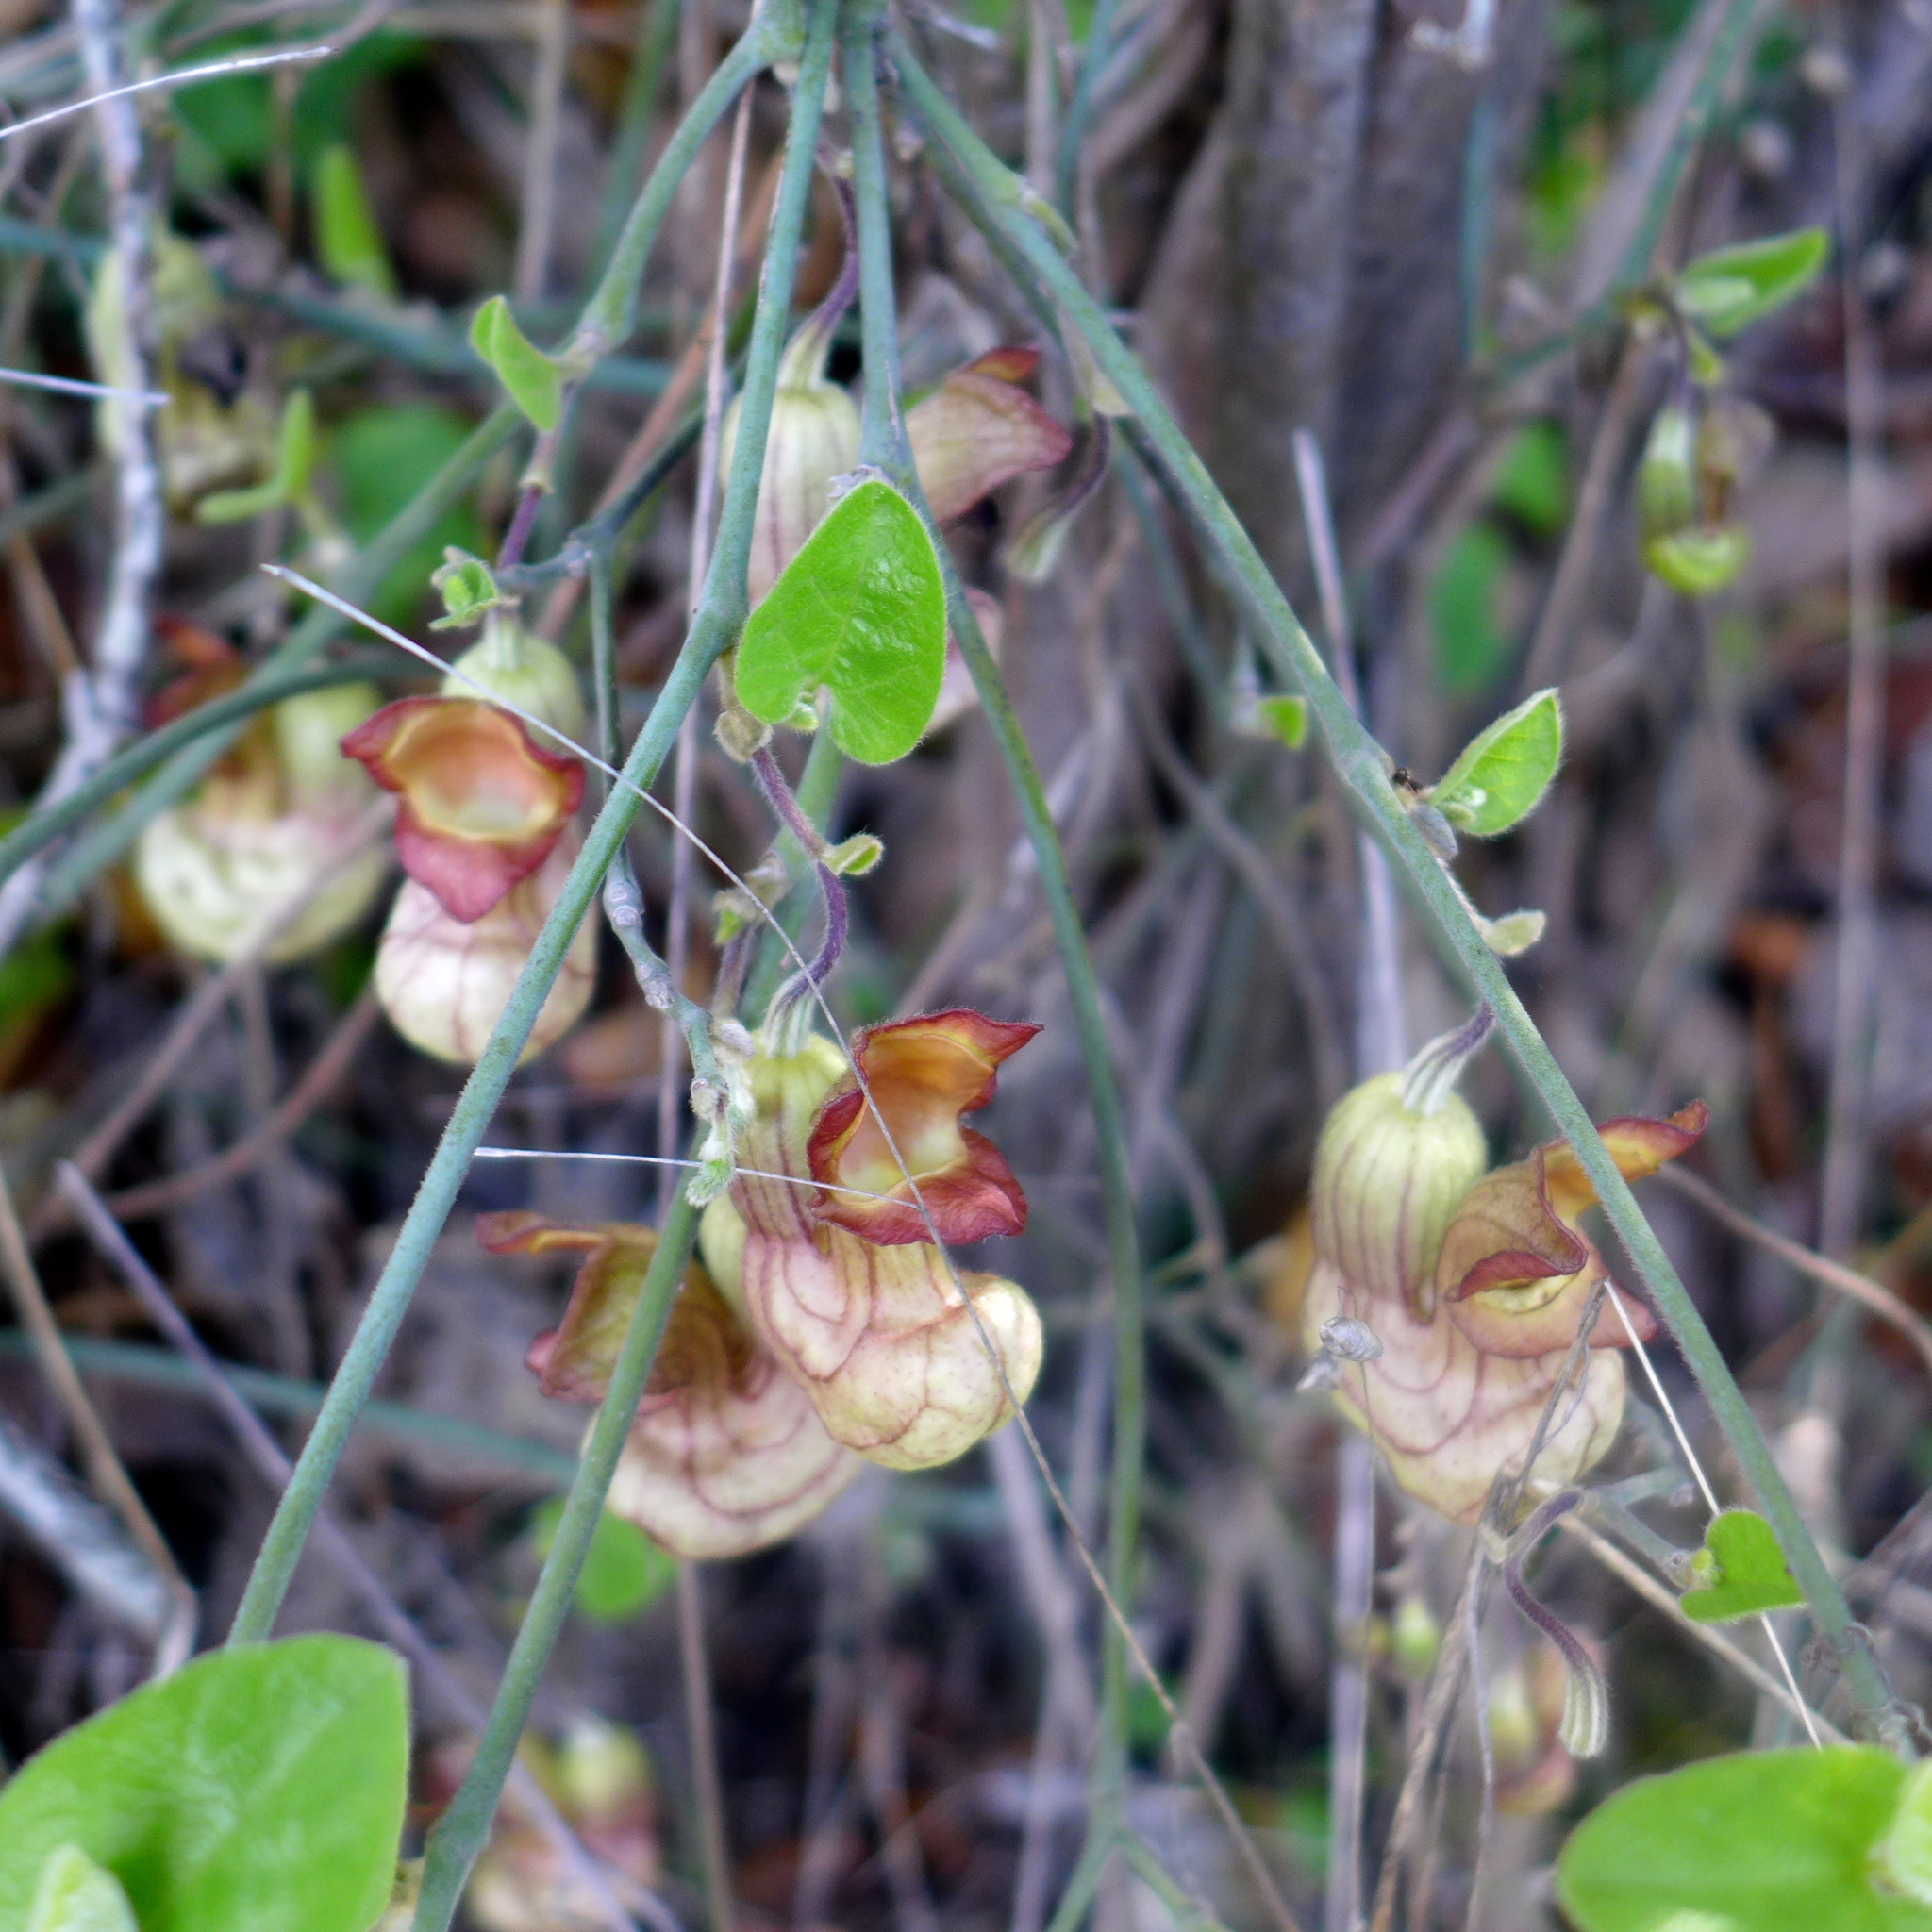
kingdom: Plantae
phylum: Tracheophyta
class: Magnoliopsida
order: Piperales
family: Aristolochiaceae
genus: Isotrema
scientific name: Isotrema californicum
